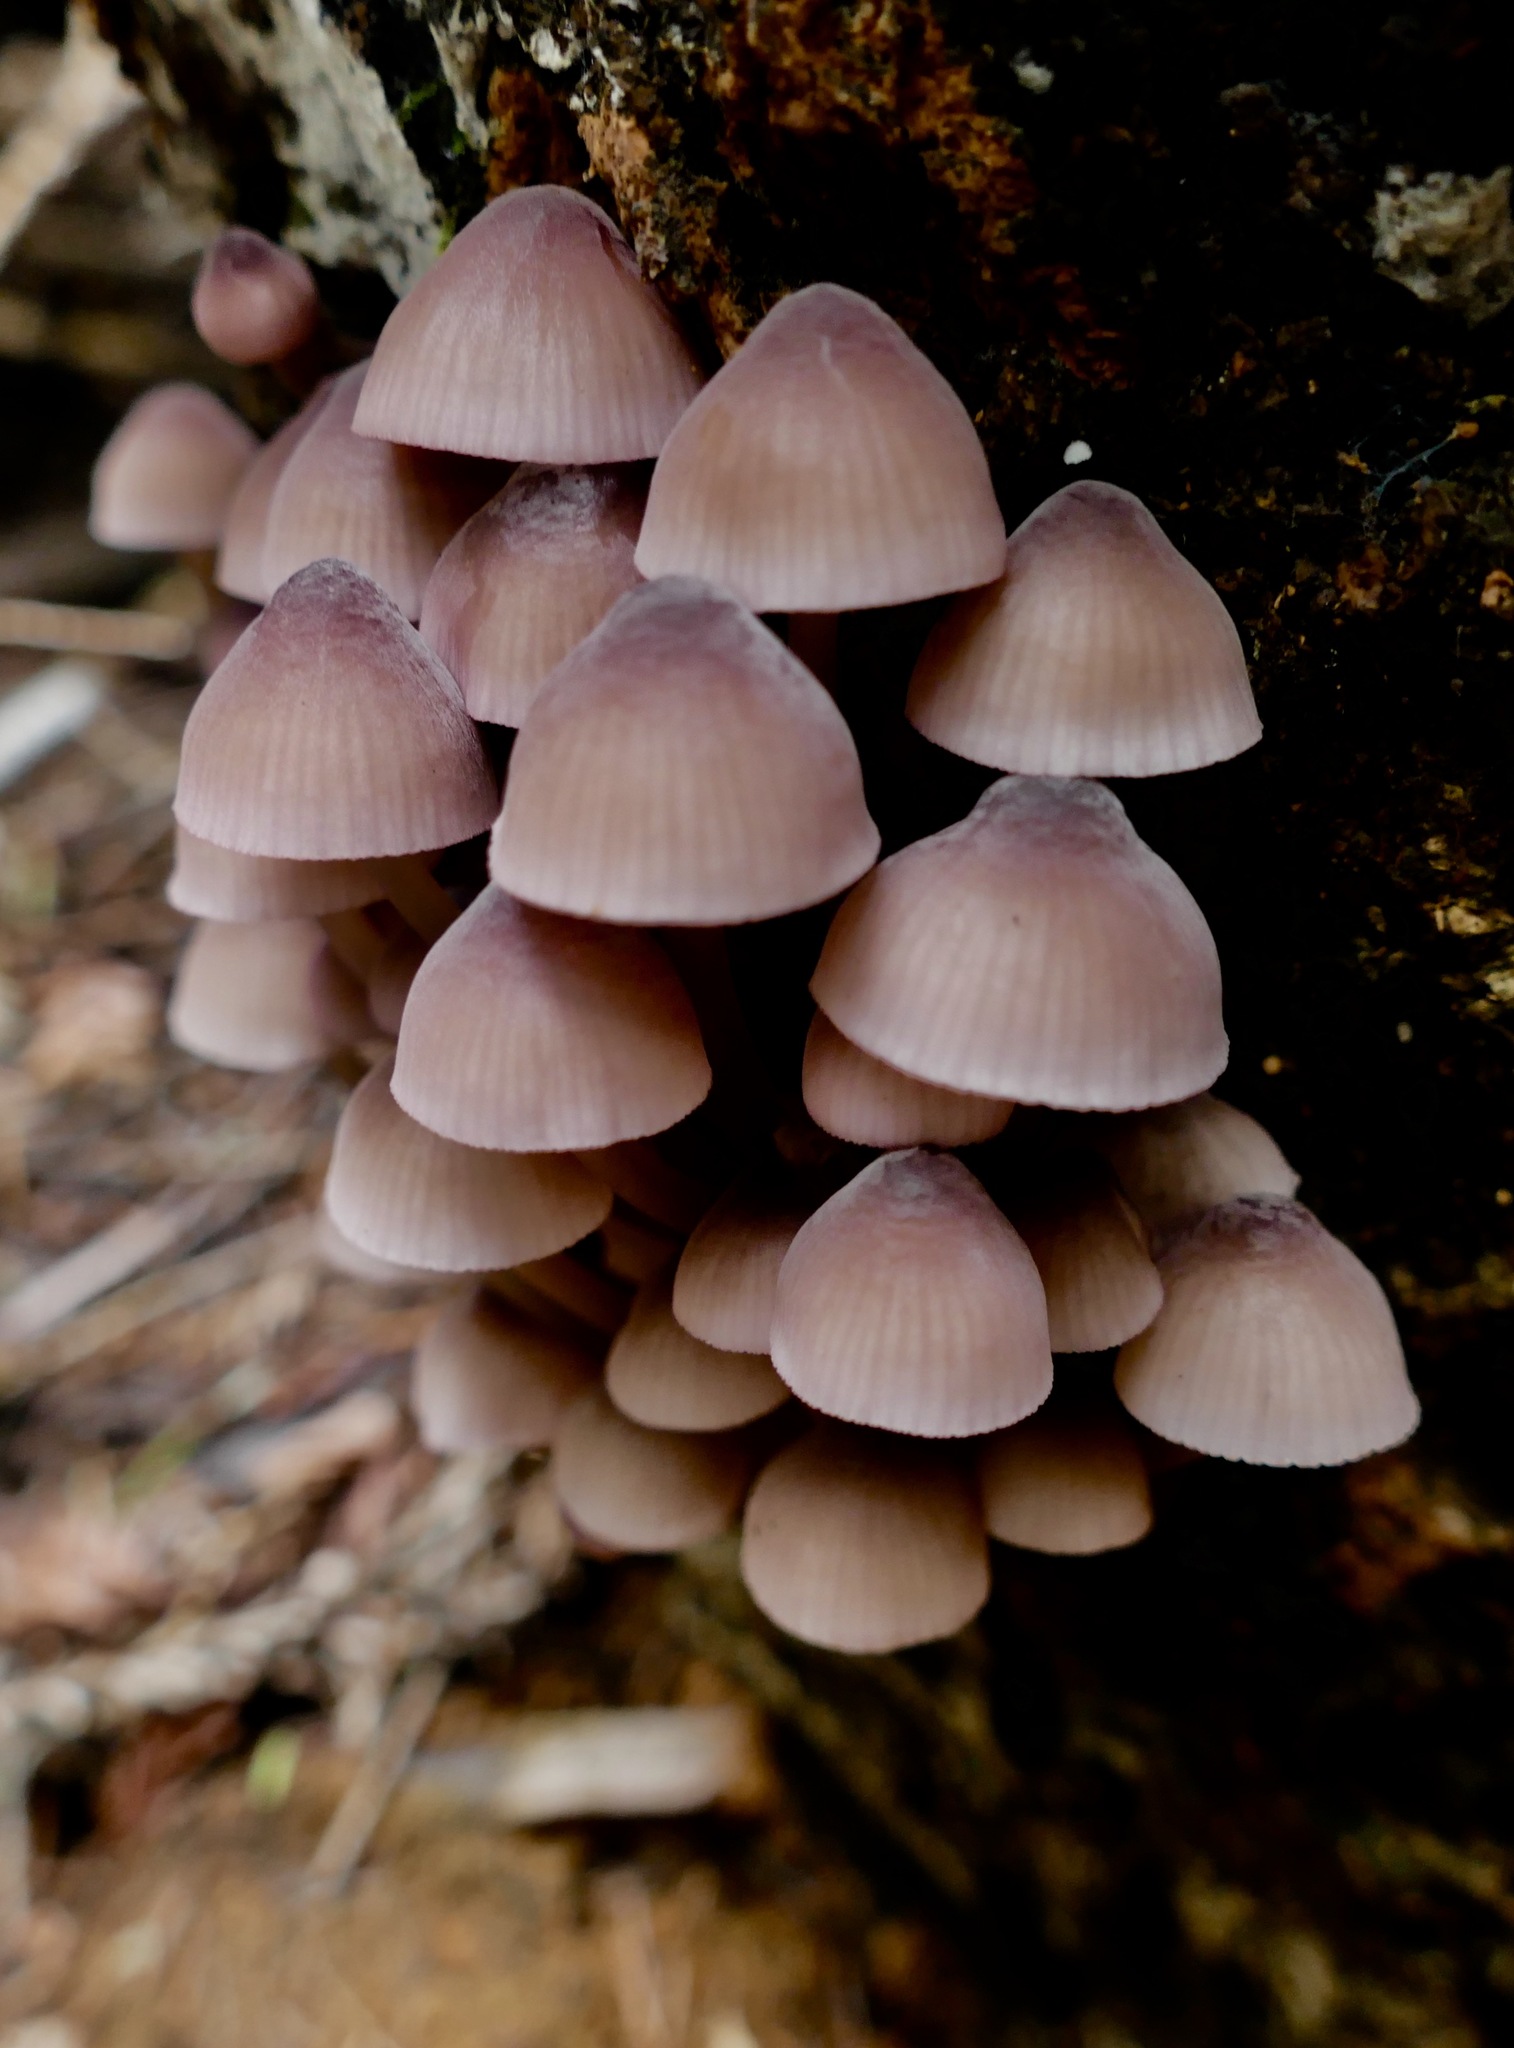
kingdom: Fungi
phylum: Basidiomycota
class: Agaricomycetes
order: Agaricales
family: Mycenaceae
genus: Mycena
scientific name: Mycena haematopus
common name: Burgundydrop bonnet
